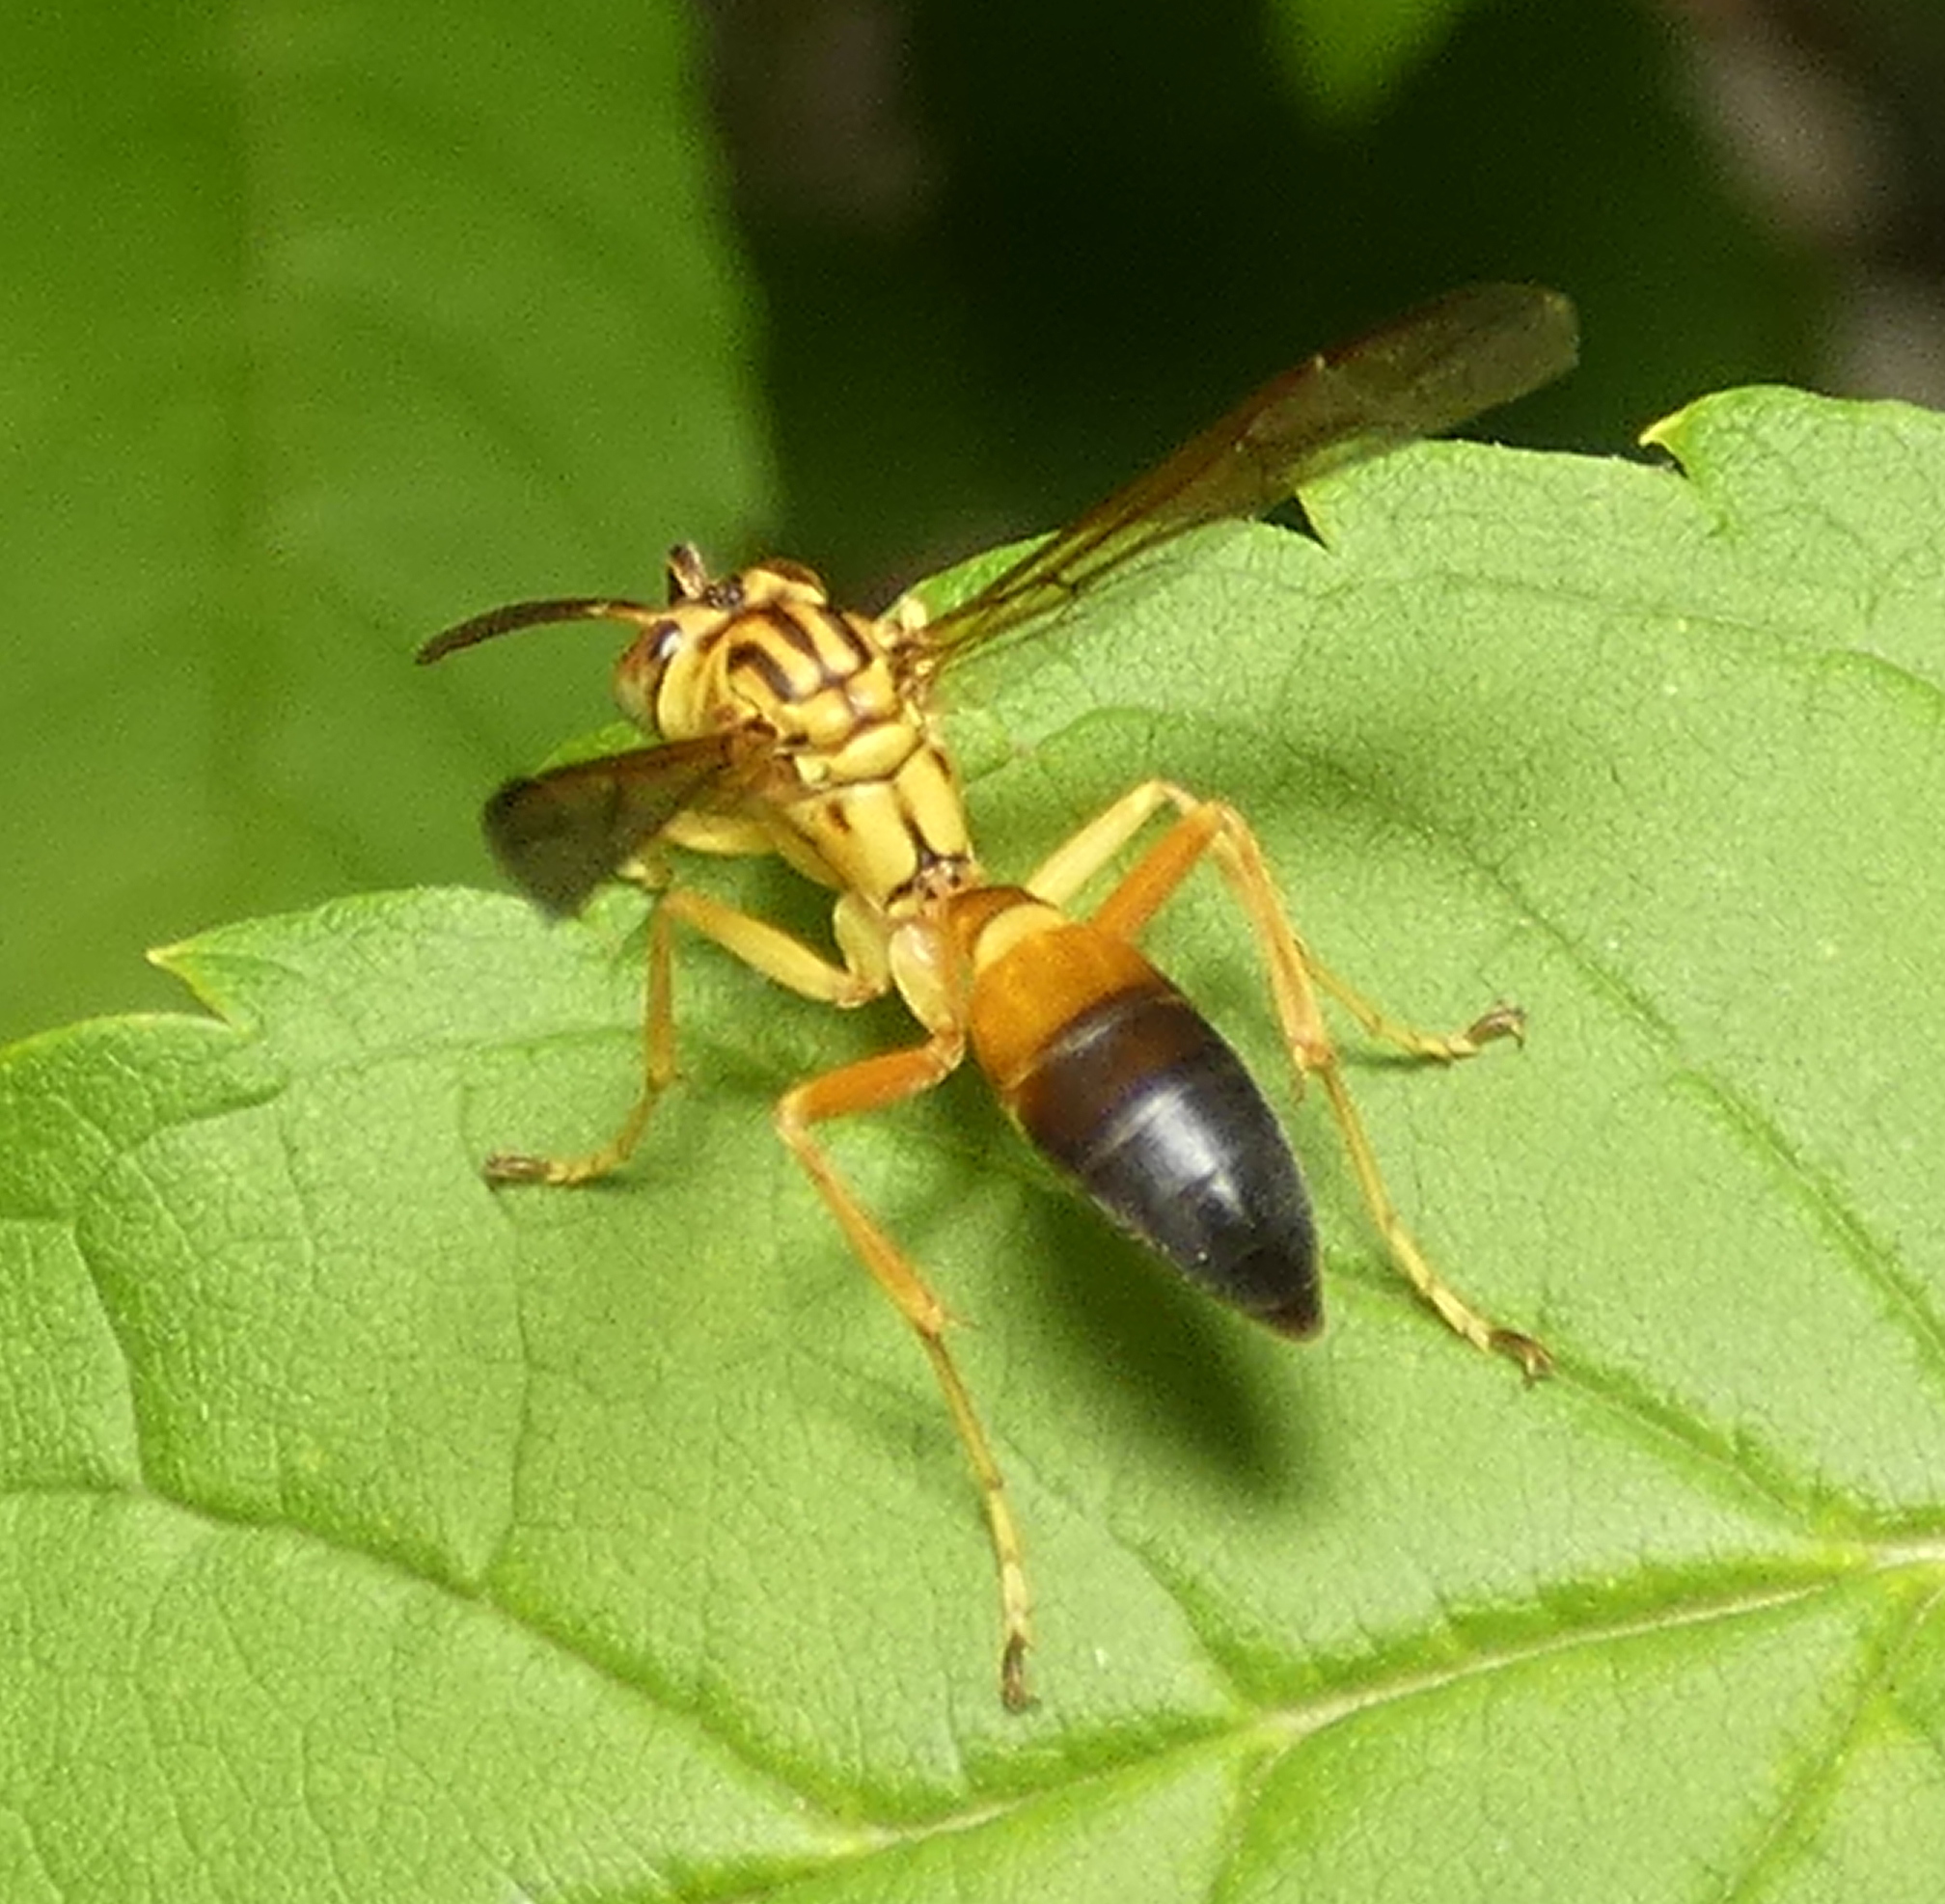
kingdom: Animalia
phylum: Arthropoda
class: Insecta
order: Hymenoptera
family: Vespidae
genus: Agelaia
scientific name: Agelaia pallipes
